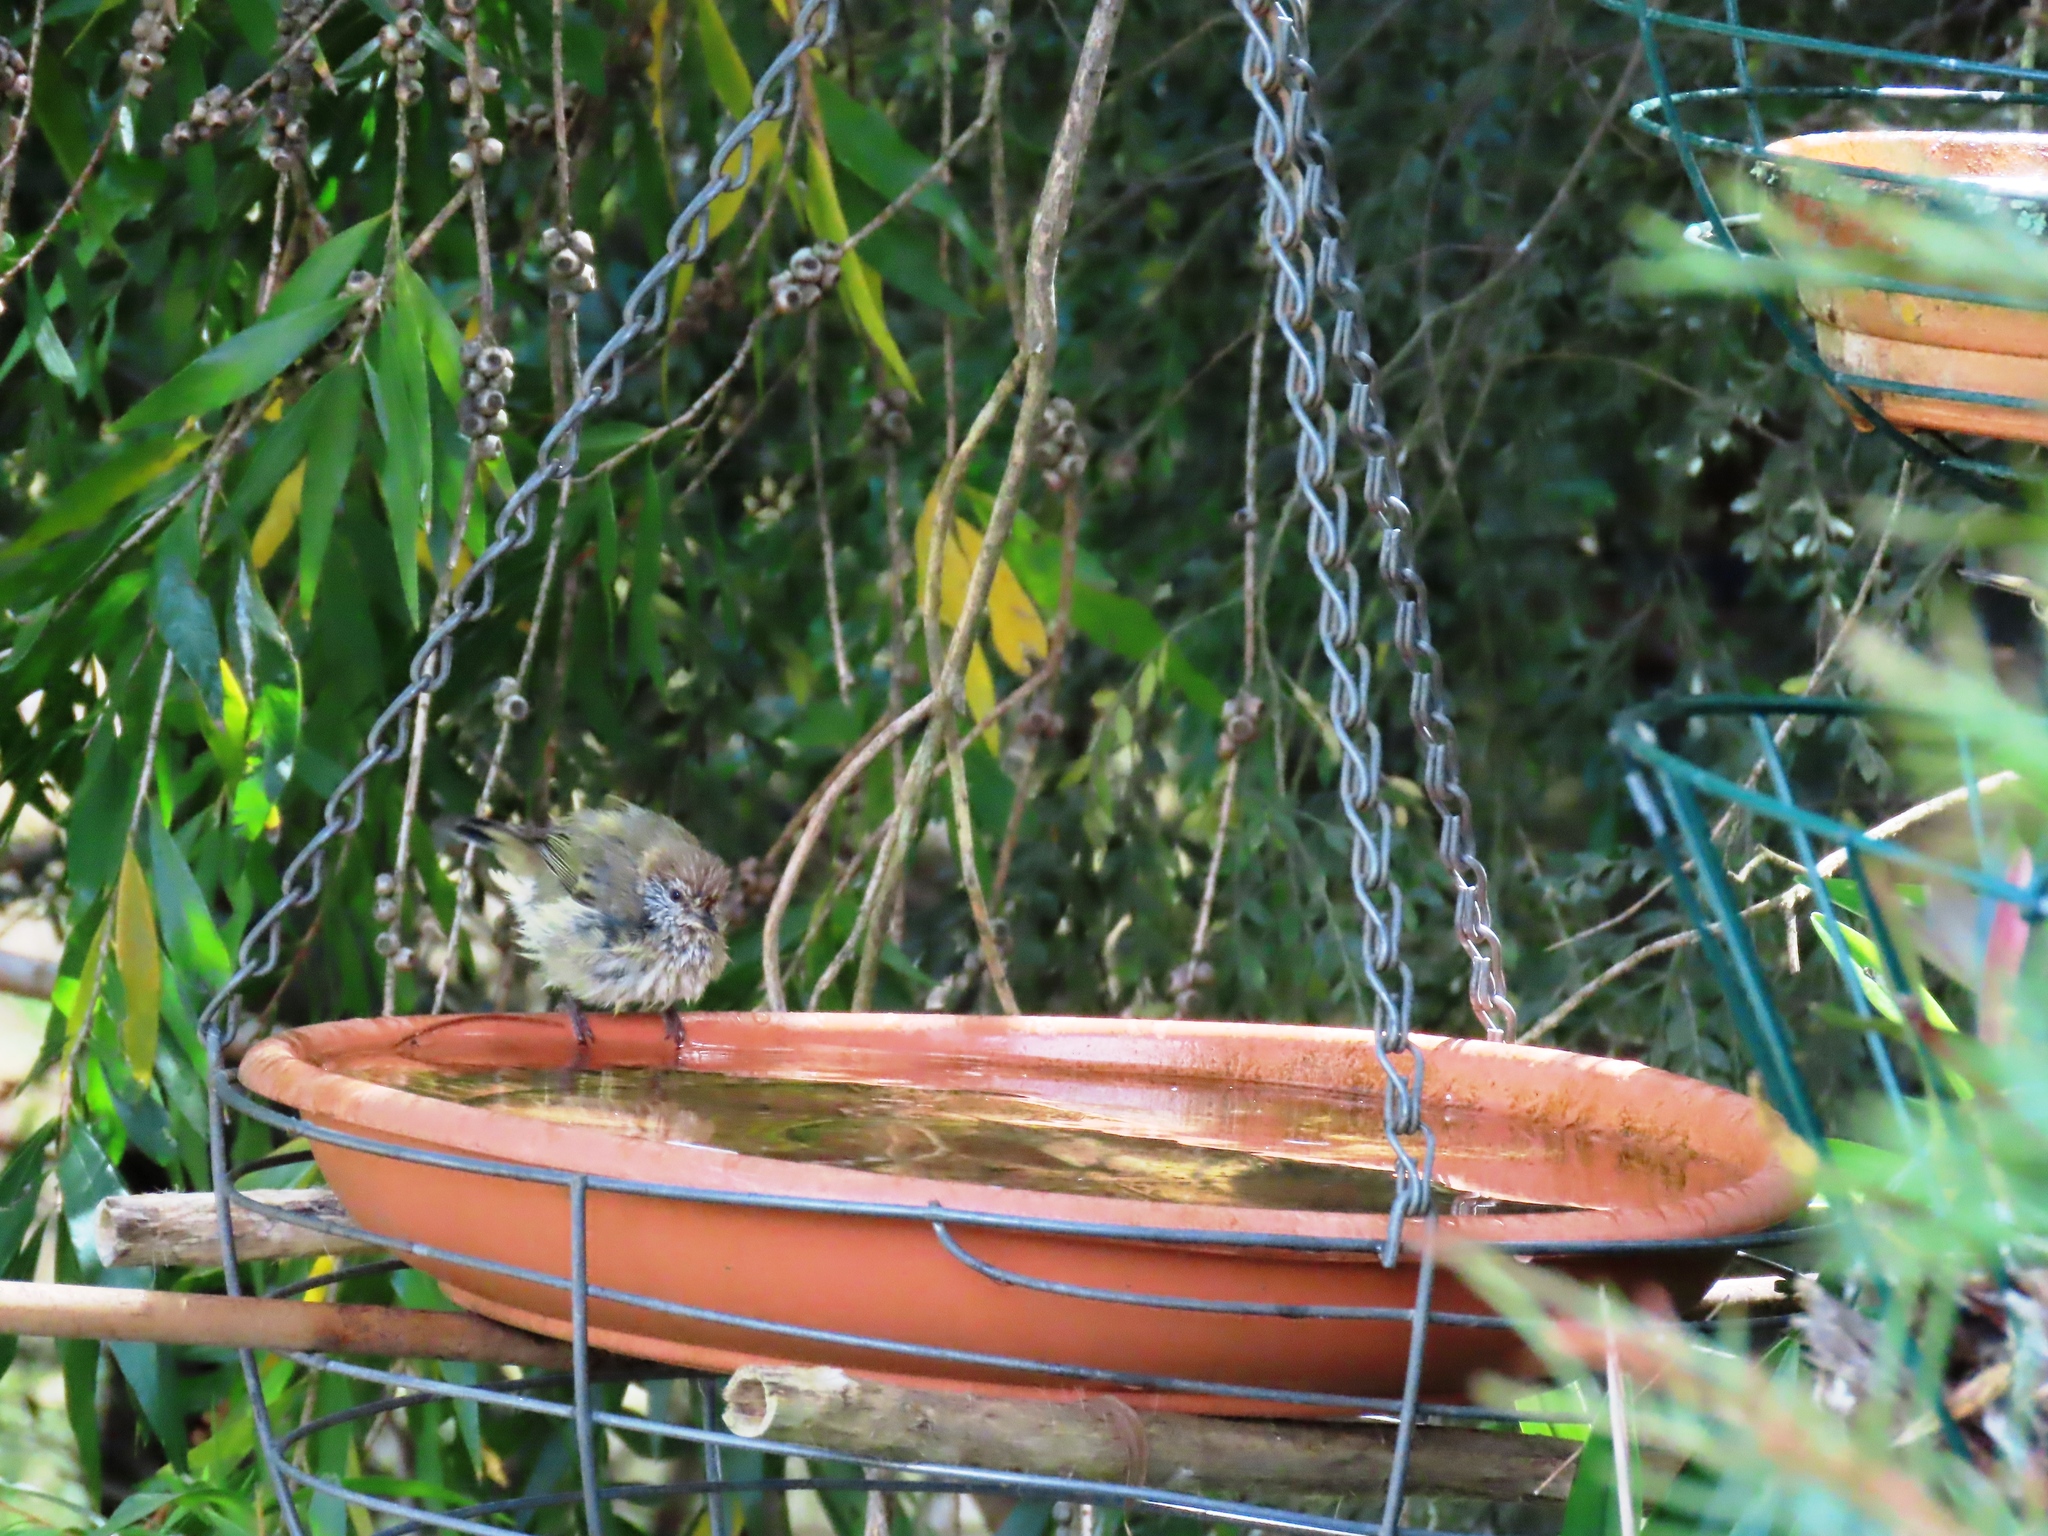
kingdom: Animalia
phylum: Chordata
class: Aves
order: Passeriformes
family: Acanthizidae
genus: Acanthiza
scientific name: Acanthiza lineata
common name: Striated thornbill
